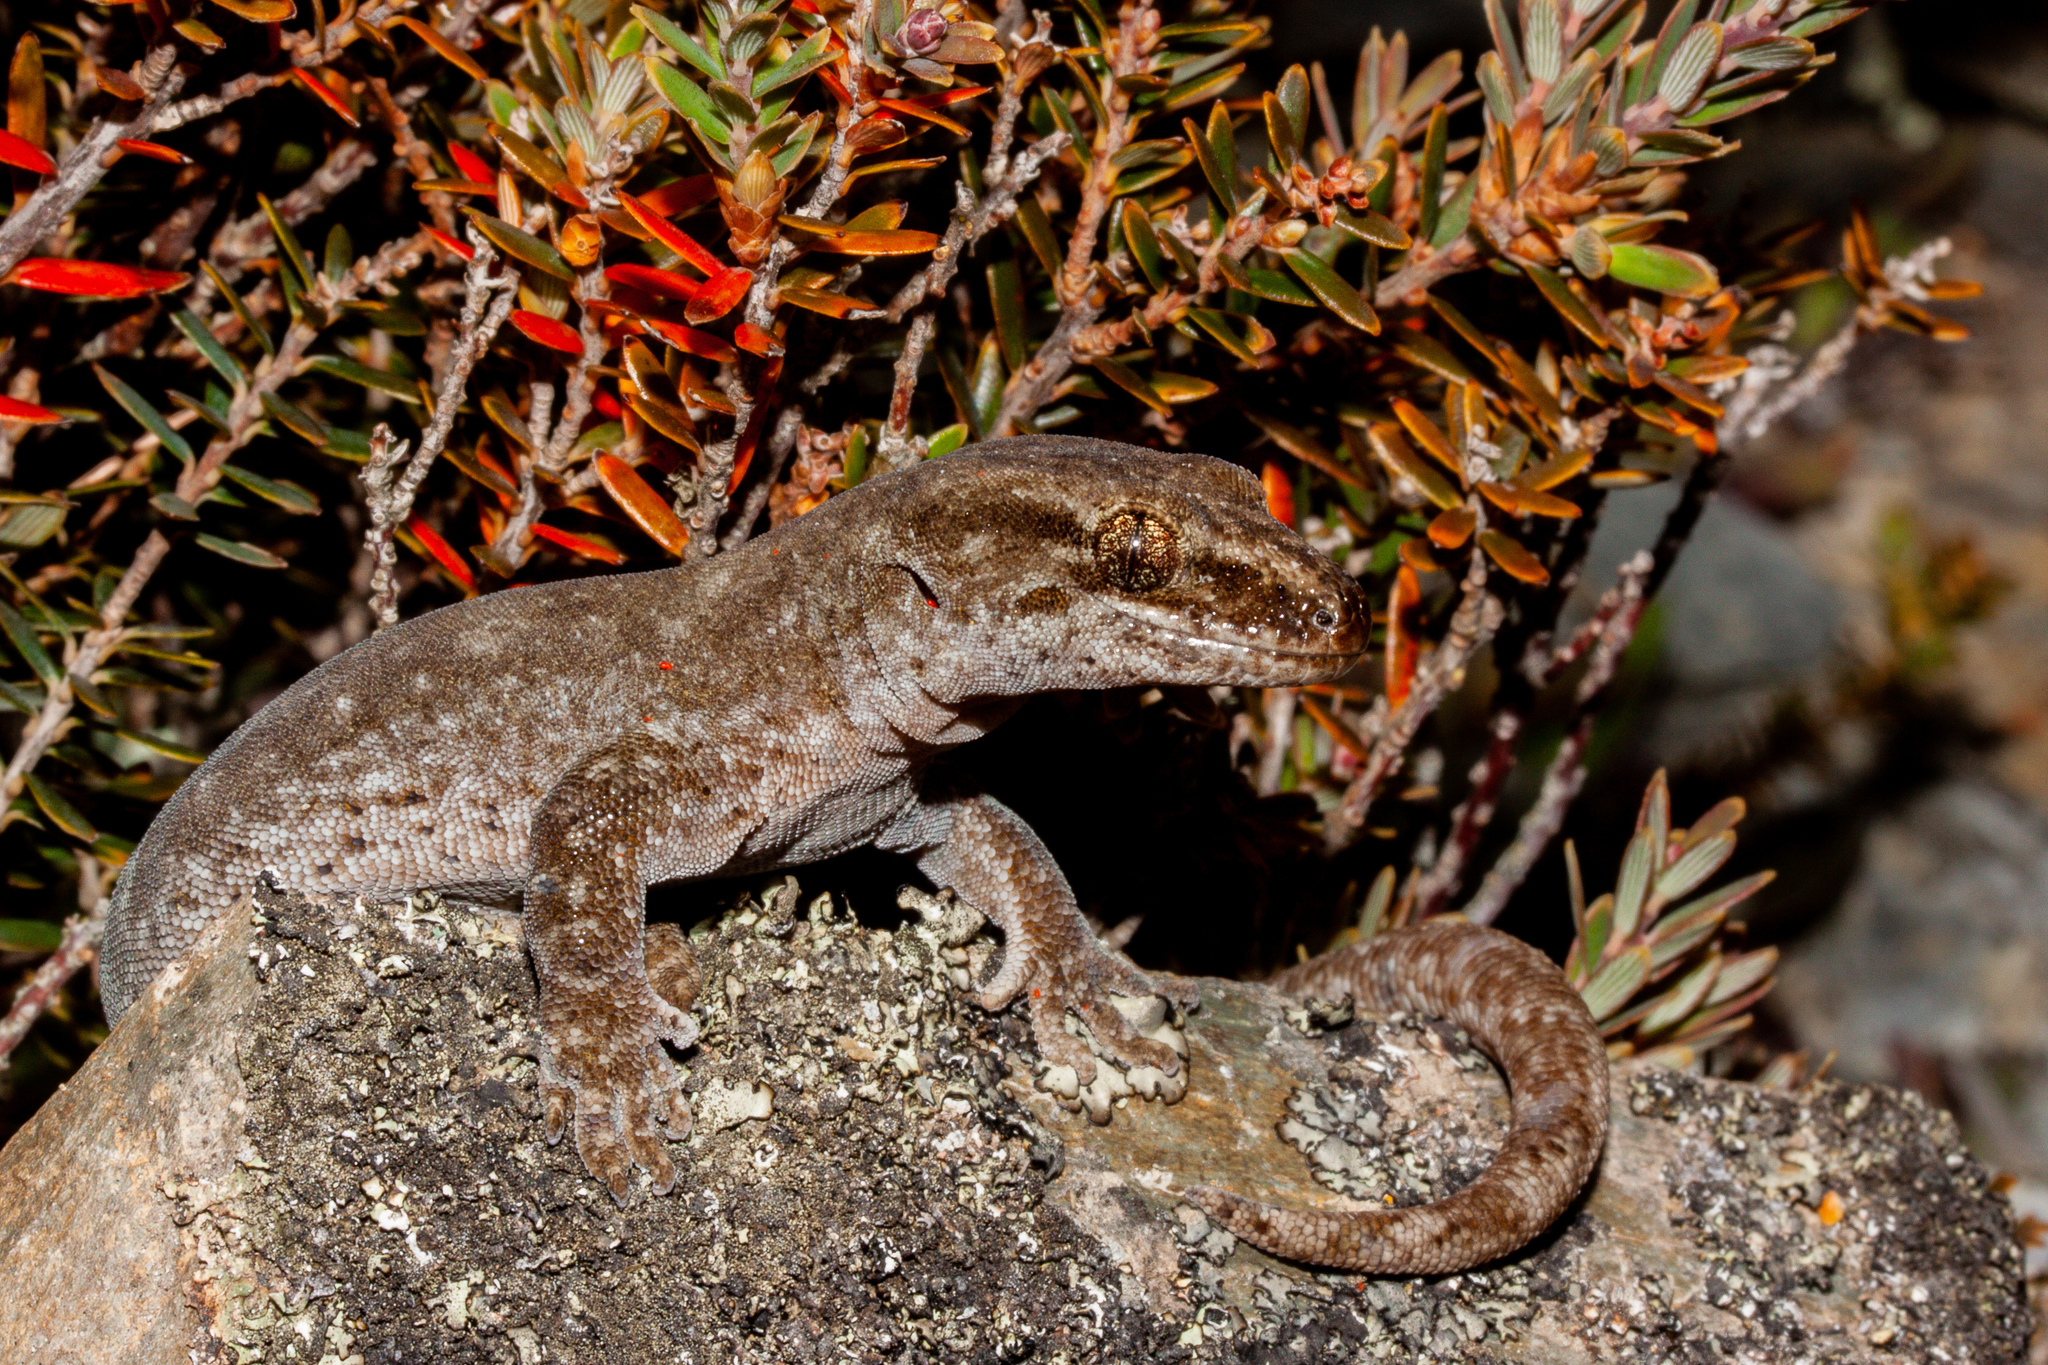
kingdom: Animalia
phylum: Chordata
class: Squamata
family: Diplodactylidae
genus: Woodworthia
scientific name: Woodworthia
